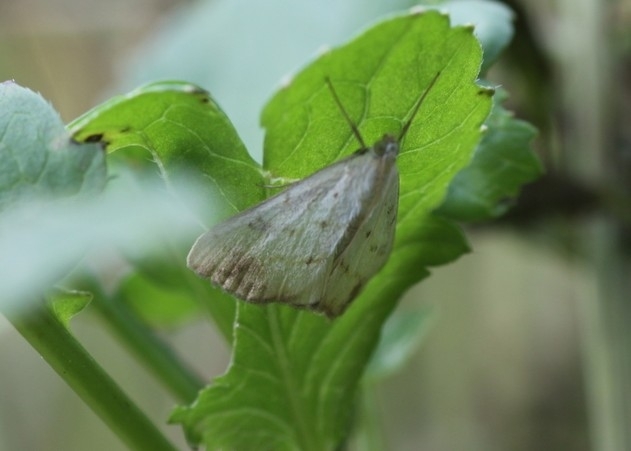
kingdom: Animalia
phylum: Arthropoda
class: Insecta
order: Lepidoptera
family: Crambidae
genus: Evergestis
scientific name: Evergestis extimalis
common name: Marbled yellow pearl
